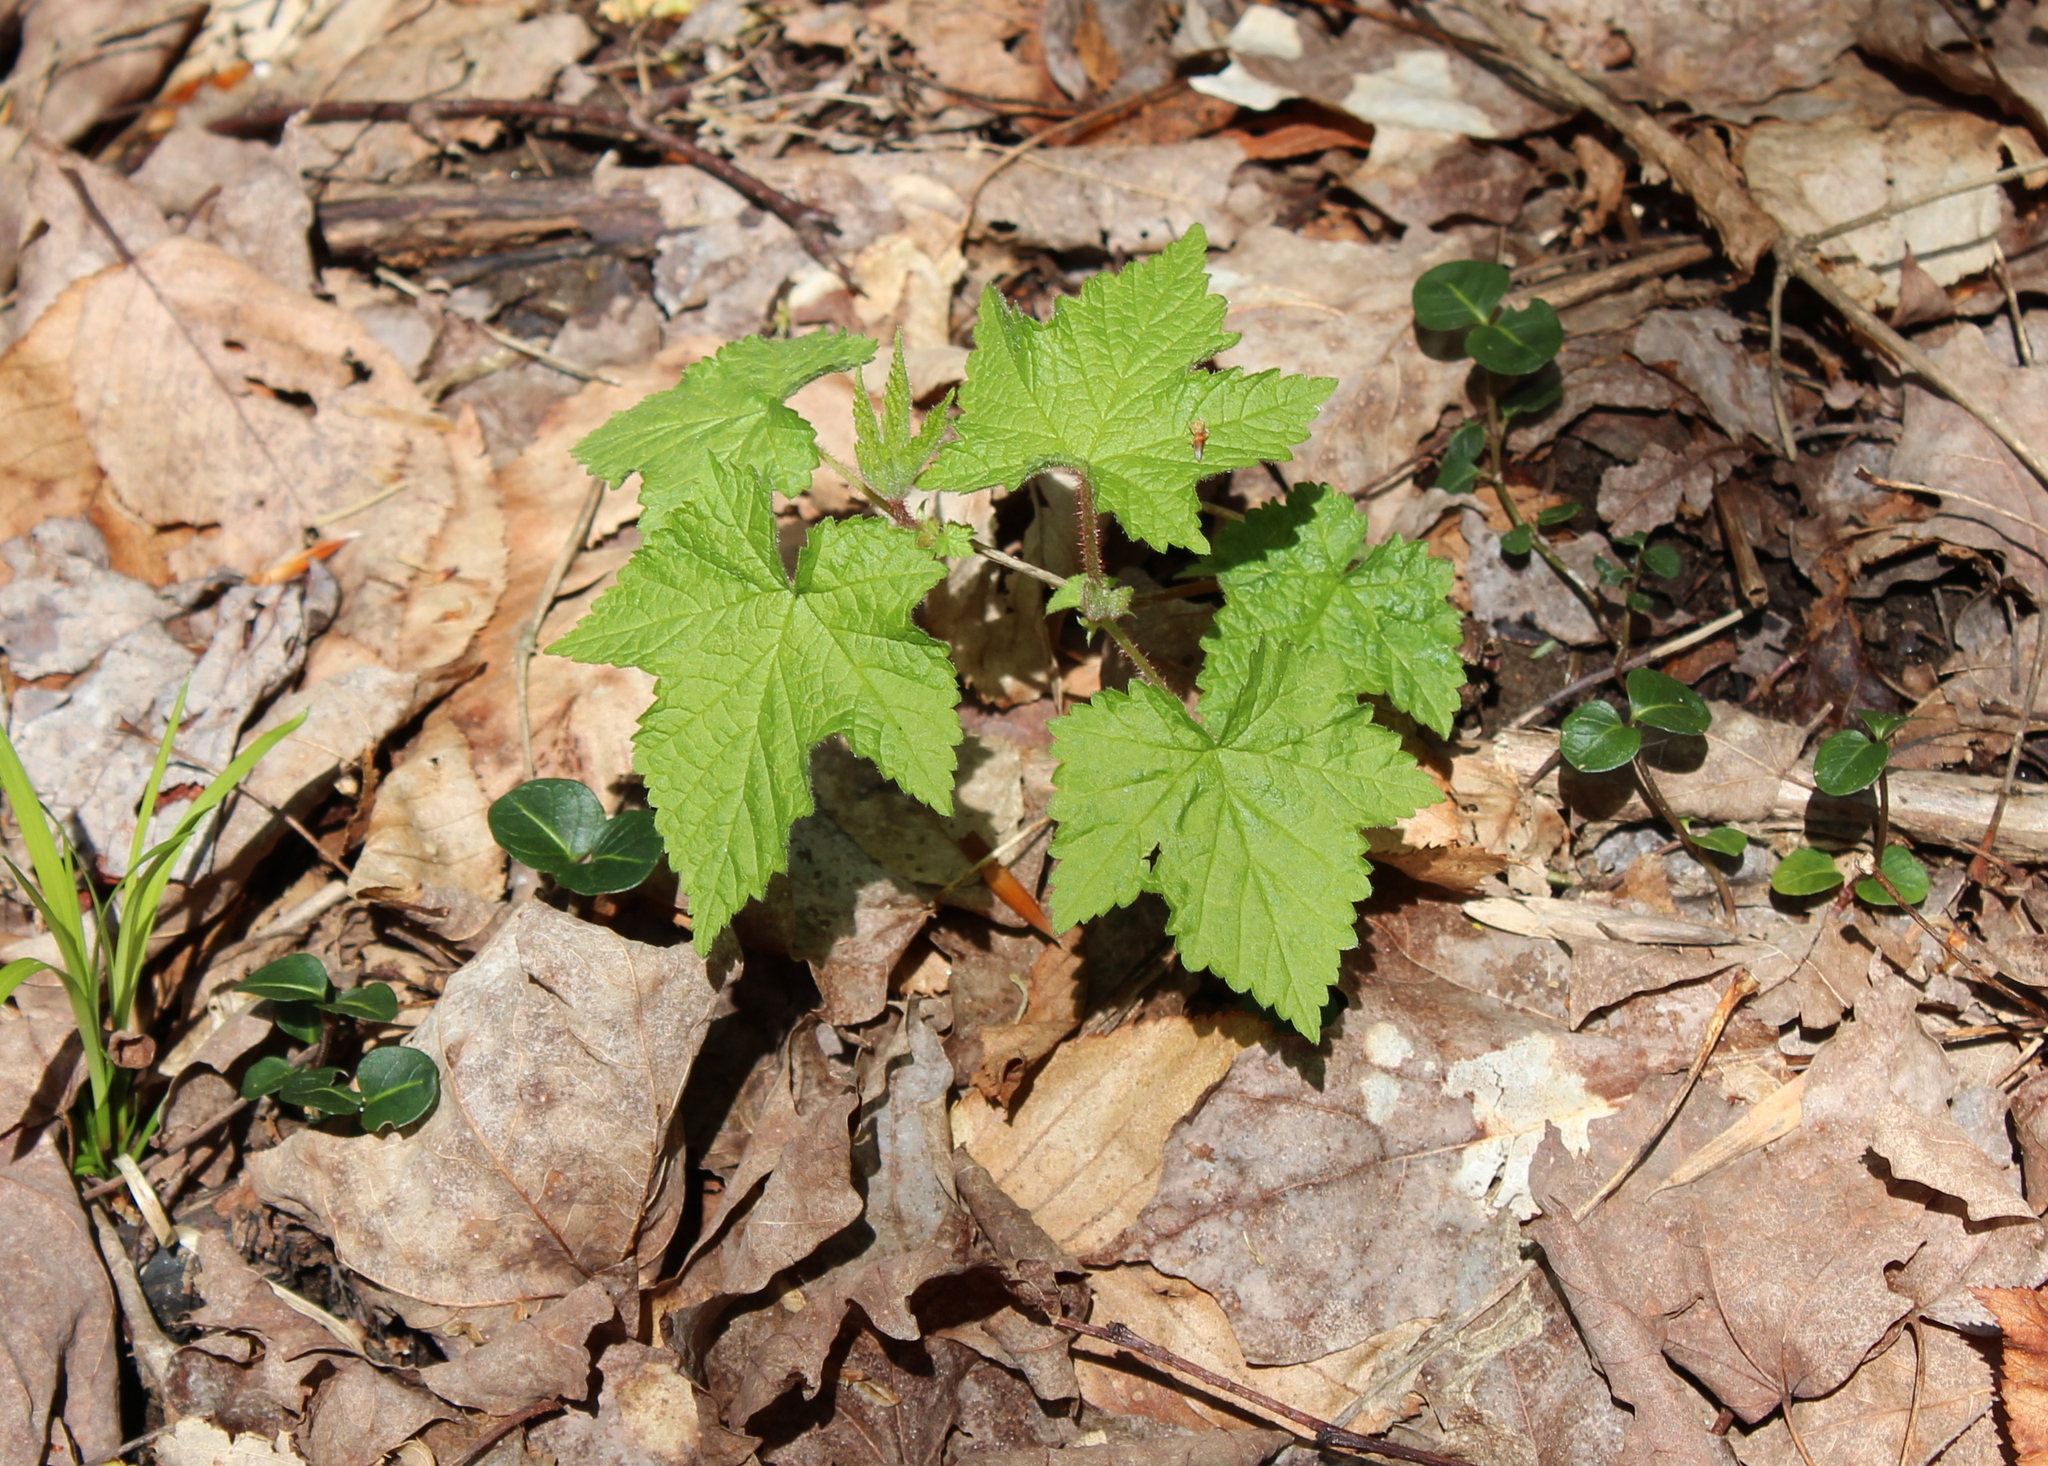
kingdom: Plantae
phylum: Tracheophyta
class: Magnoliopsida
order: Rosales
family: Rosaceae
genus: Rubus
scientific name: Rubus odoratus
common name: Purple-flowered raspberry
